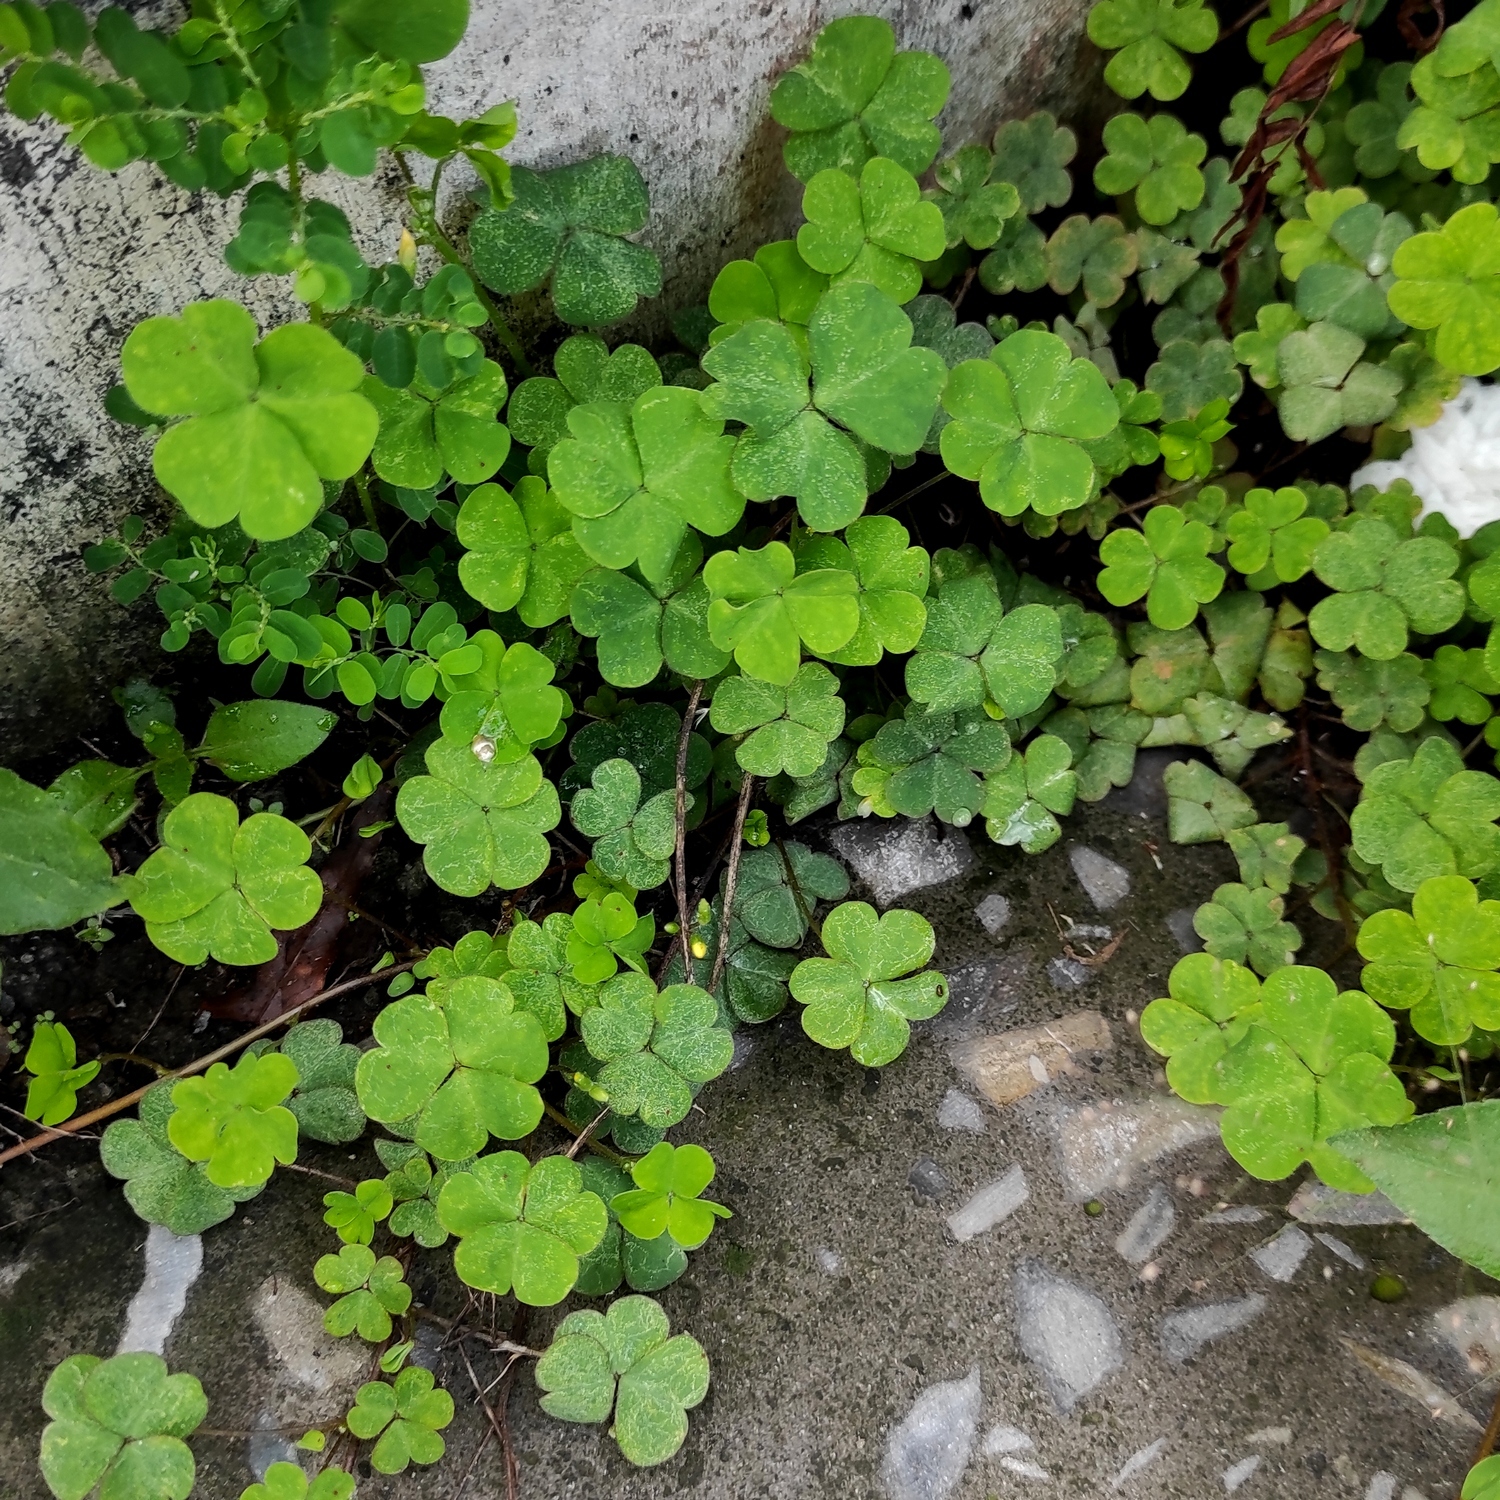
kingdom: Plantae
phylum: Tracheophyta
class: Magnoliopsida
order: Oxalidales
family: Oxalidaceae
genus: Oxalis
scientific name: Oxalis corniculata
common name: Procumbent yellow-sorrel
